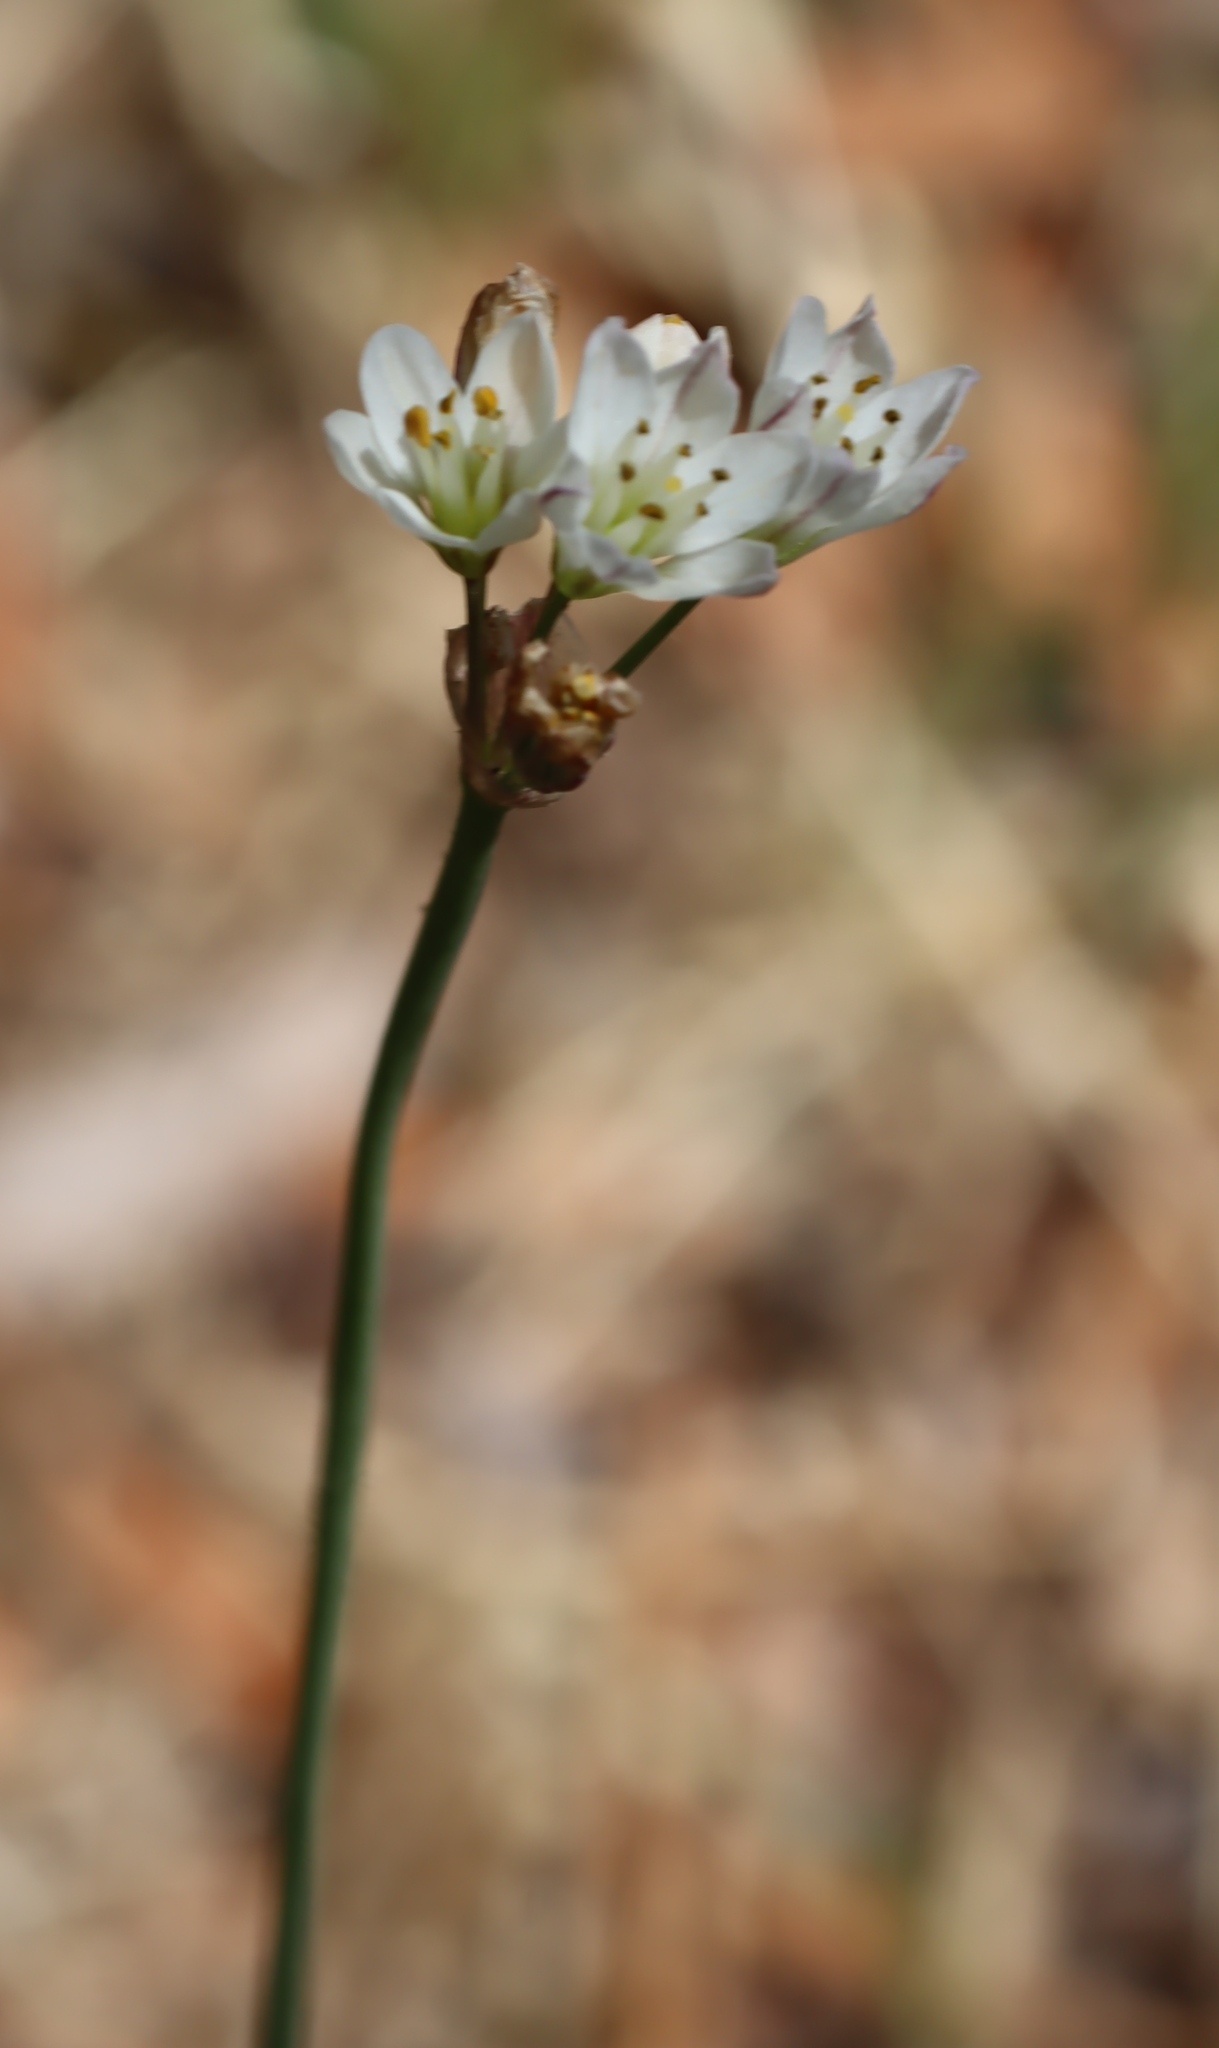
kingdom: Plantae
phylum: Tracheophyta
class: Liliopsida
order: Asparagales
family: Amaryllidaceae
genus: Nothoscordum
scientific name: Nothoscordum gracile
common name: Slender false garlic
